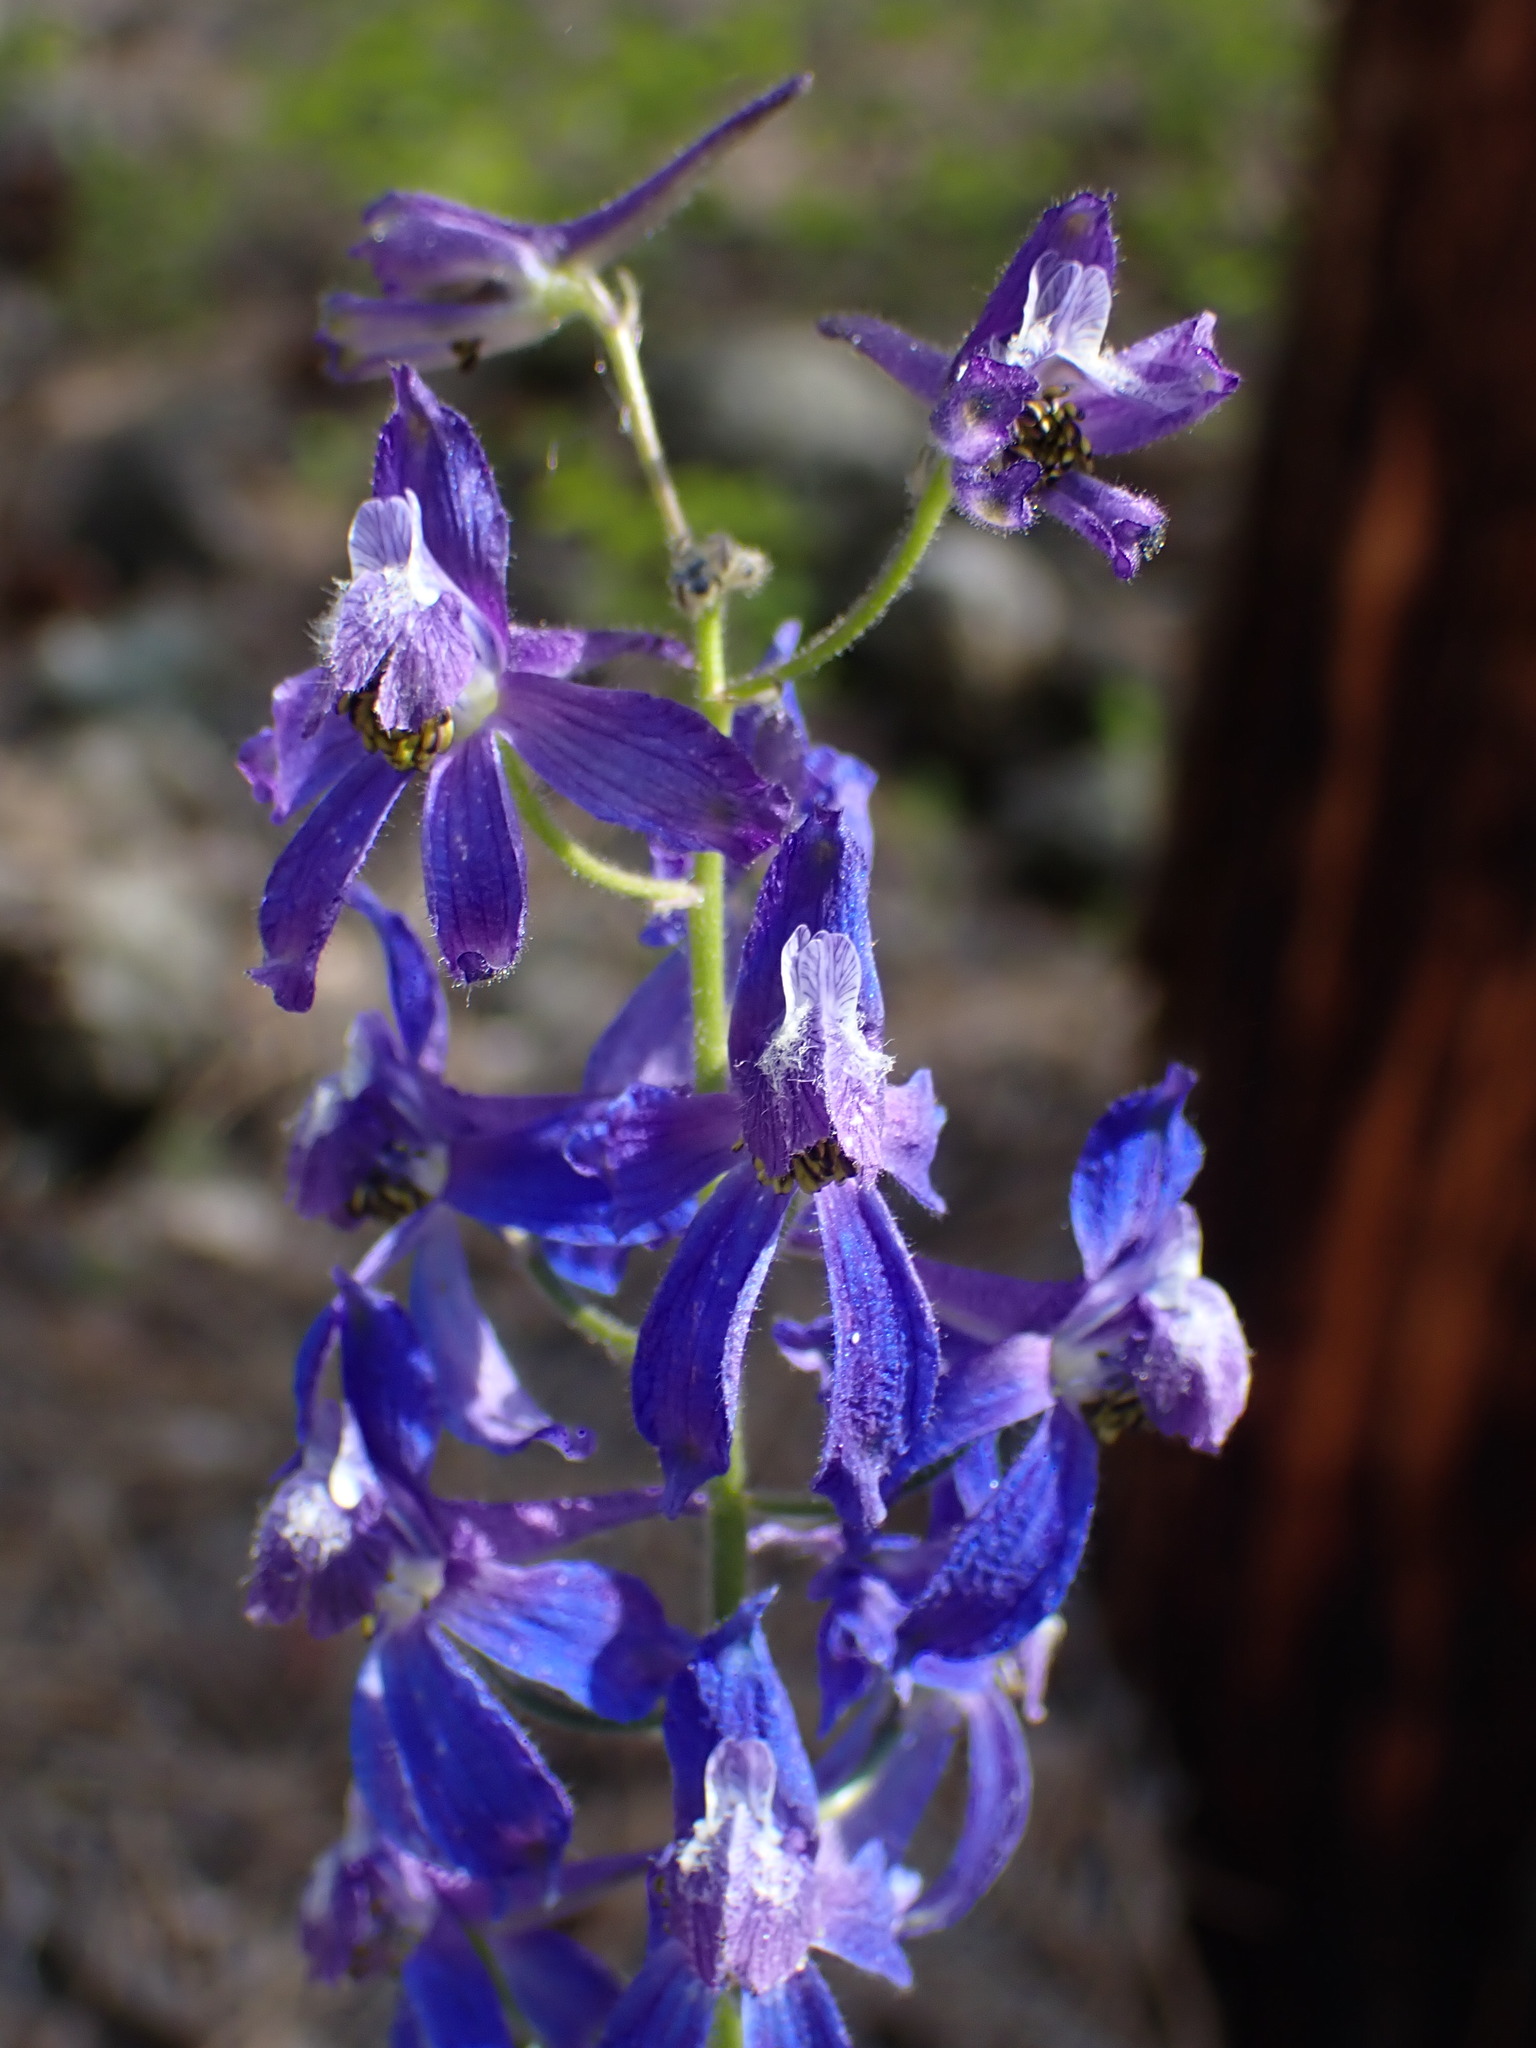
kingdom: Plantae
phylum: Tracheophyta
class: Magnoliopsida
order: Ranunculales
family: Ranunculaceae
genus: Delphinium
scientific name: Delphinium nuttallianum
